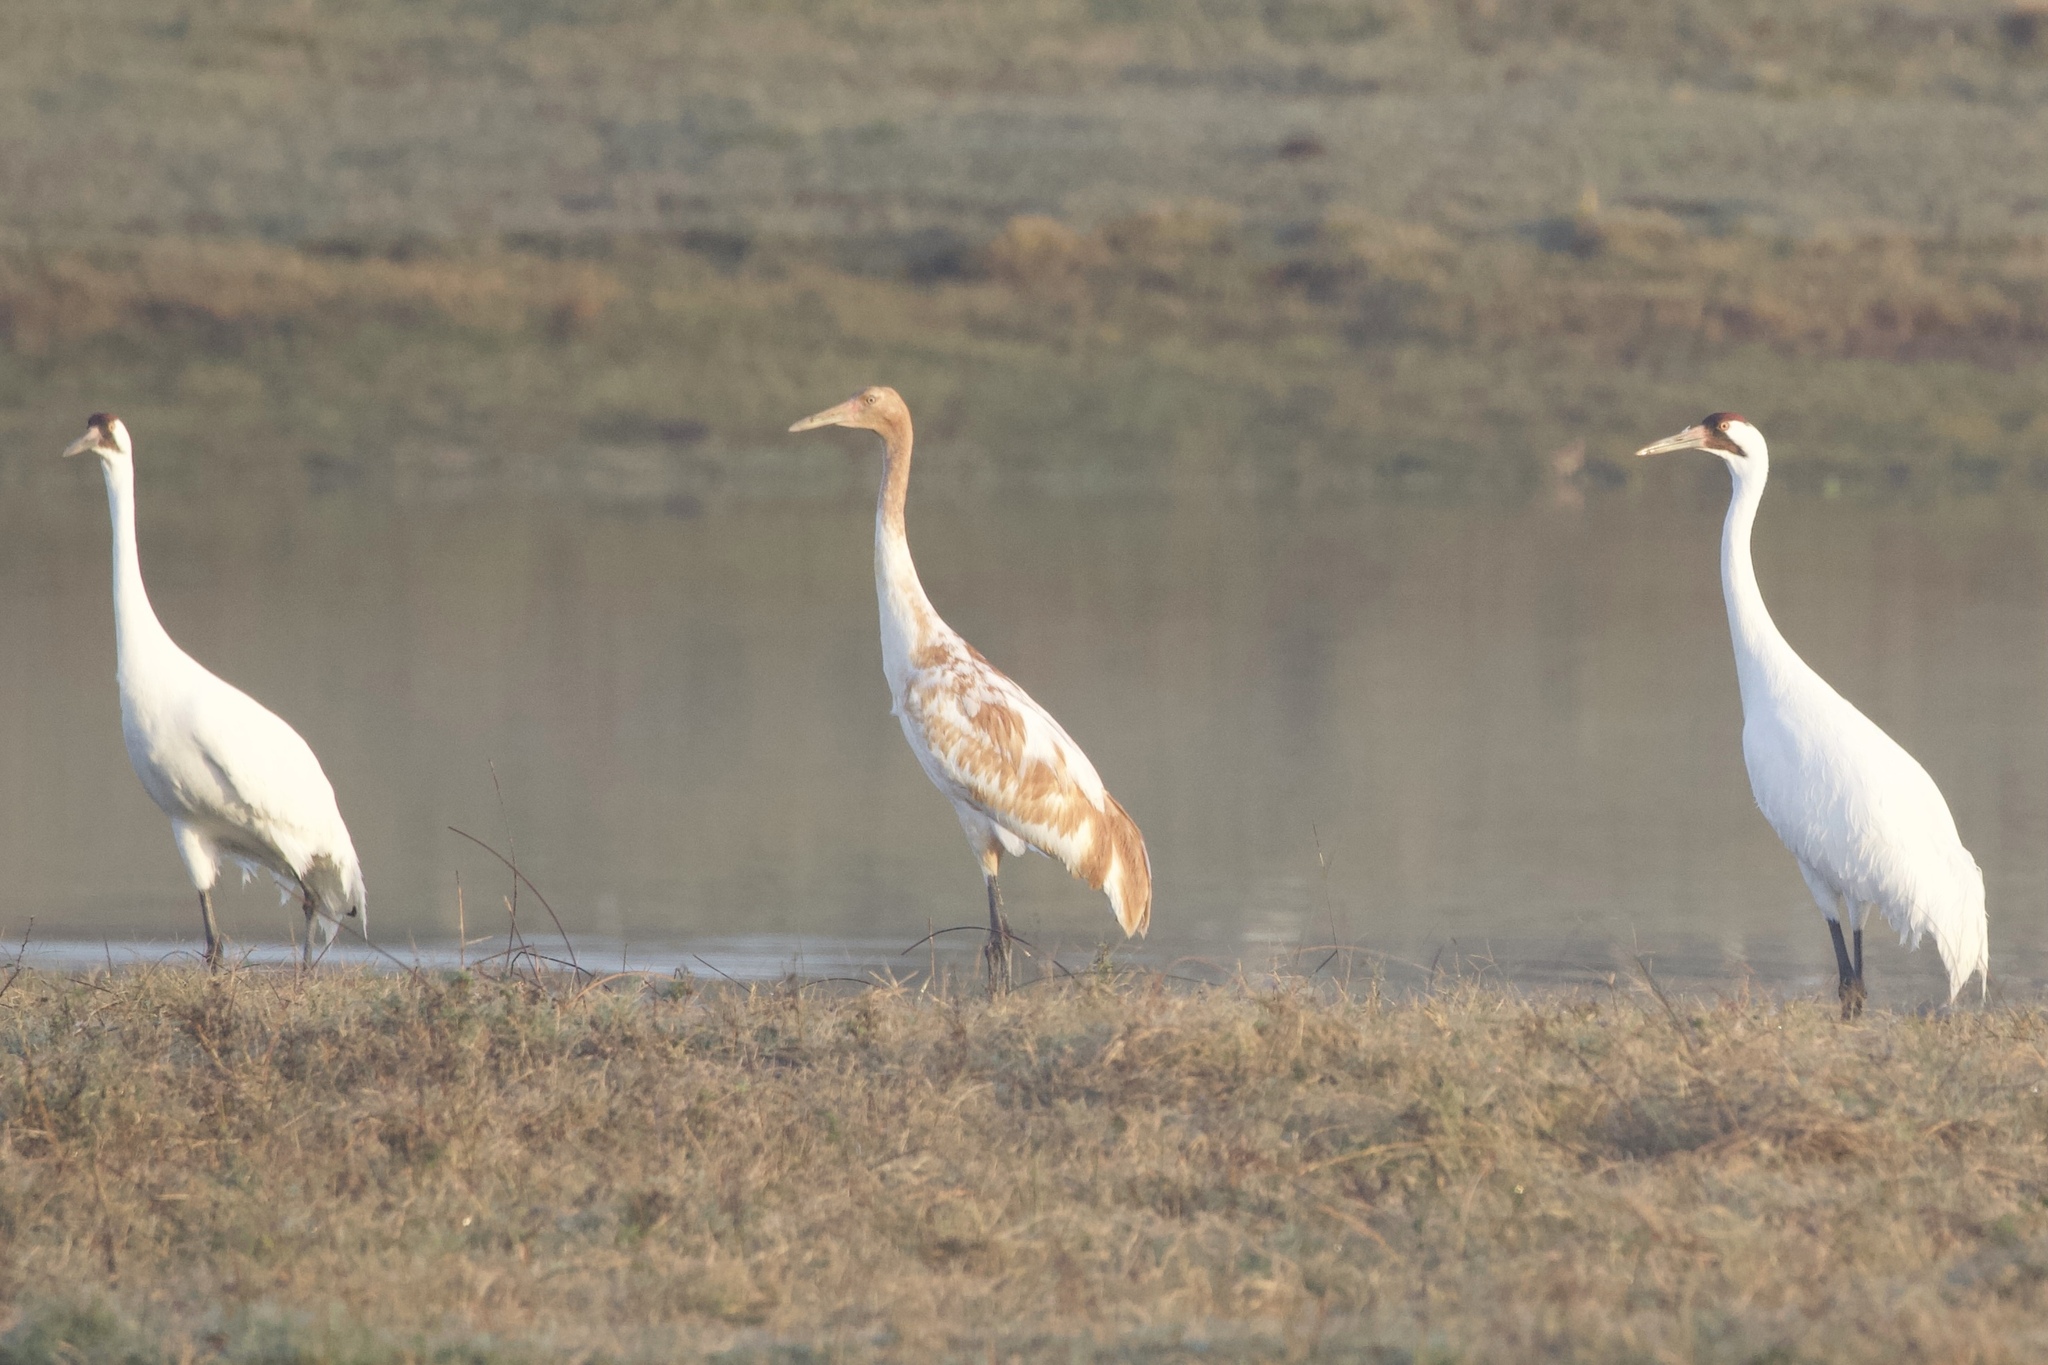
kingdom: Animalia
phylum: Chordata
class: Aves
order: Gruiformes
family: Gruidae
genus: Grus
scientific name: Grus americana
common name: Whooping crane
